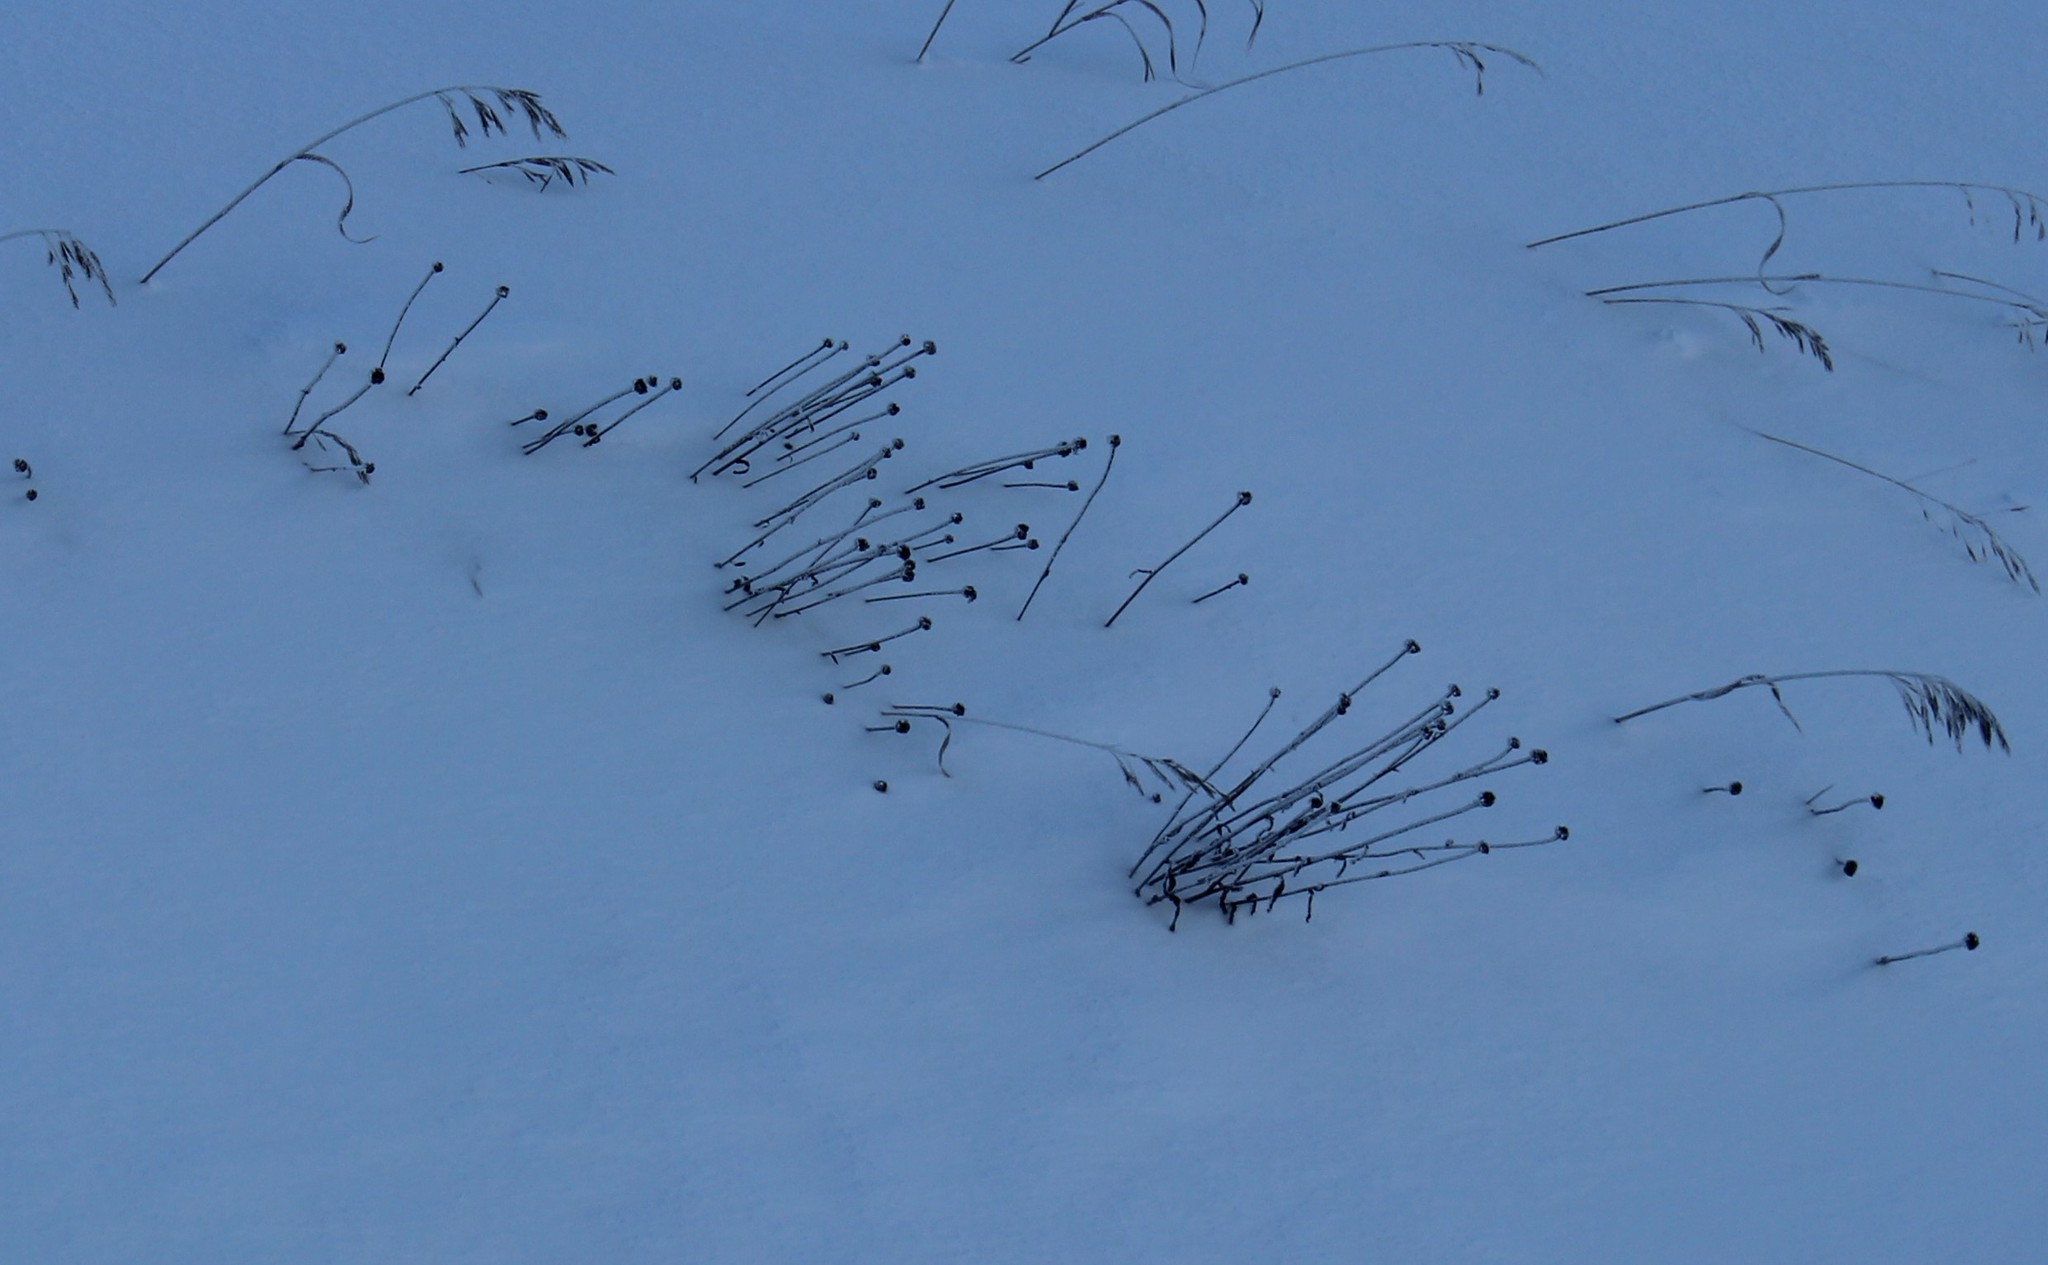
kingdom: Plantae
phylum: Tracheophyta
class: Magnoliopsida
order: Asterales
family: Asteraceae
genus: Leucanthemum
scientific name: Leucanthemum vulgare
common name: Oxeye daisy
